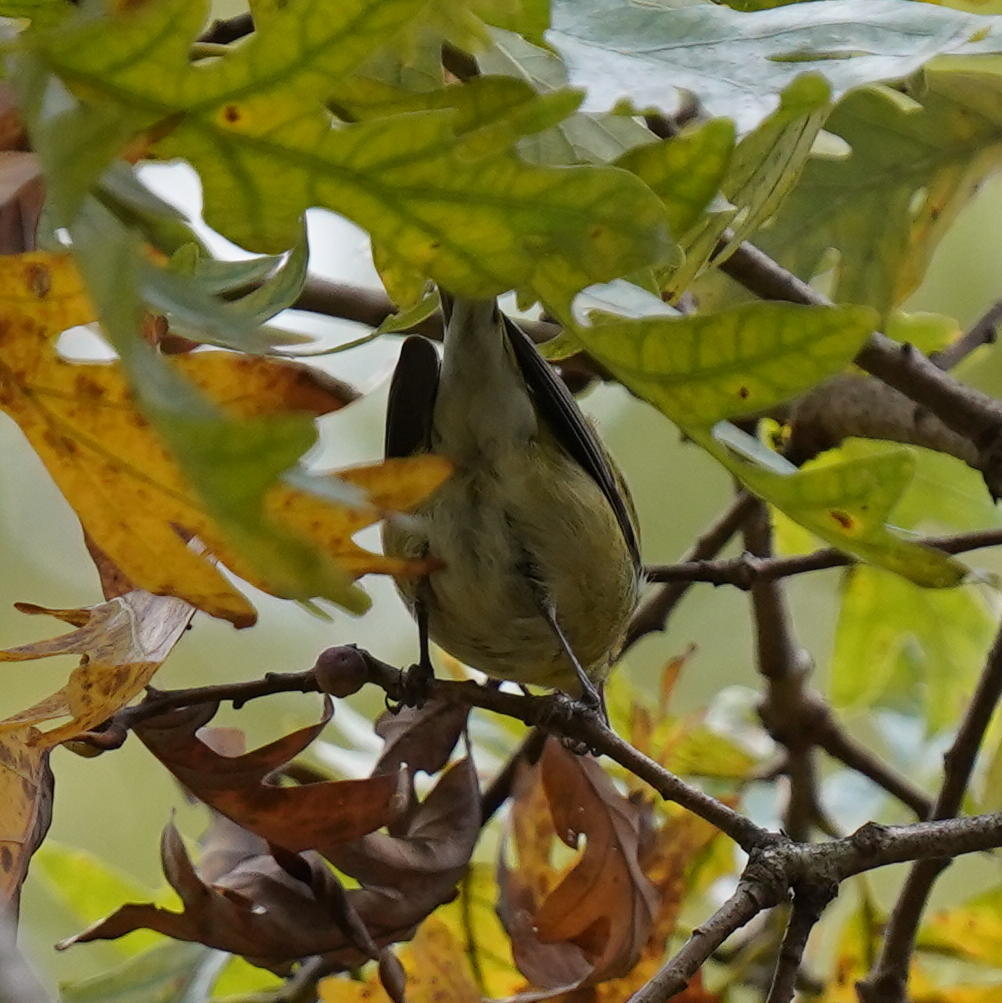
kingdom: Animalia
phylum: Chordata
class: Aves
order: Passeriformes
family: Parulidae
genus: Leiothlypis
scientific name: Leiothlypis peregrina
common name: Tennessee warbler
